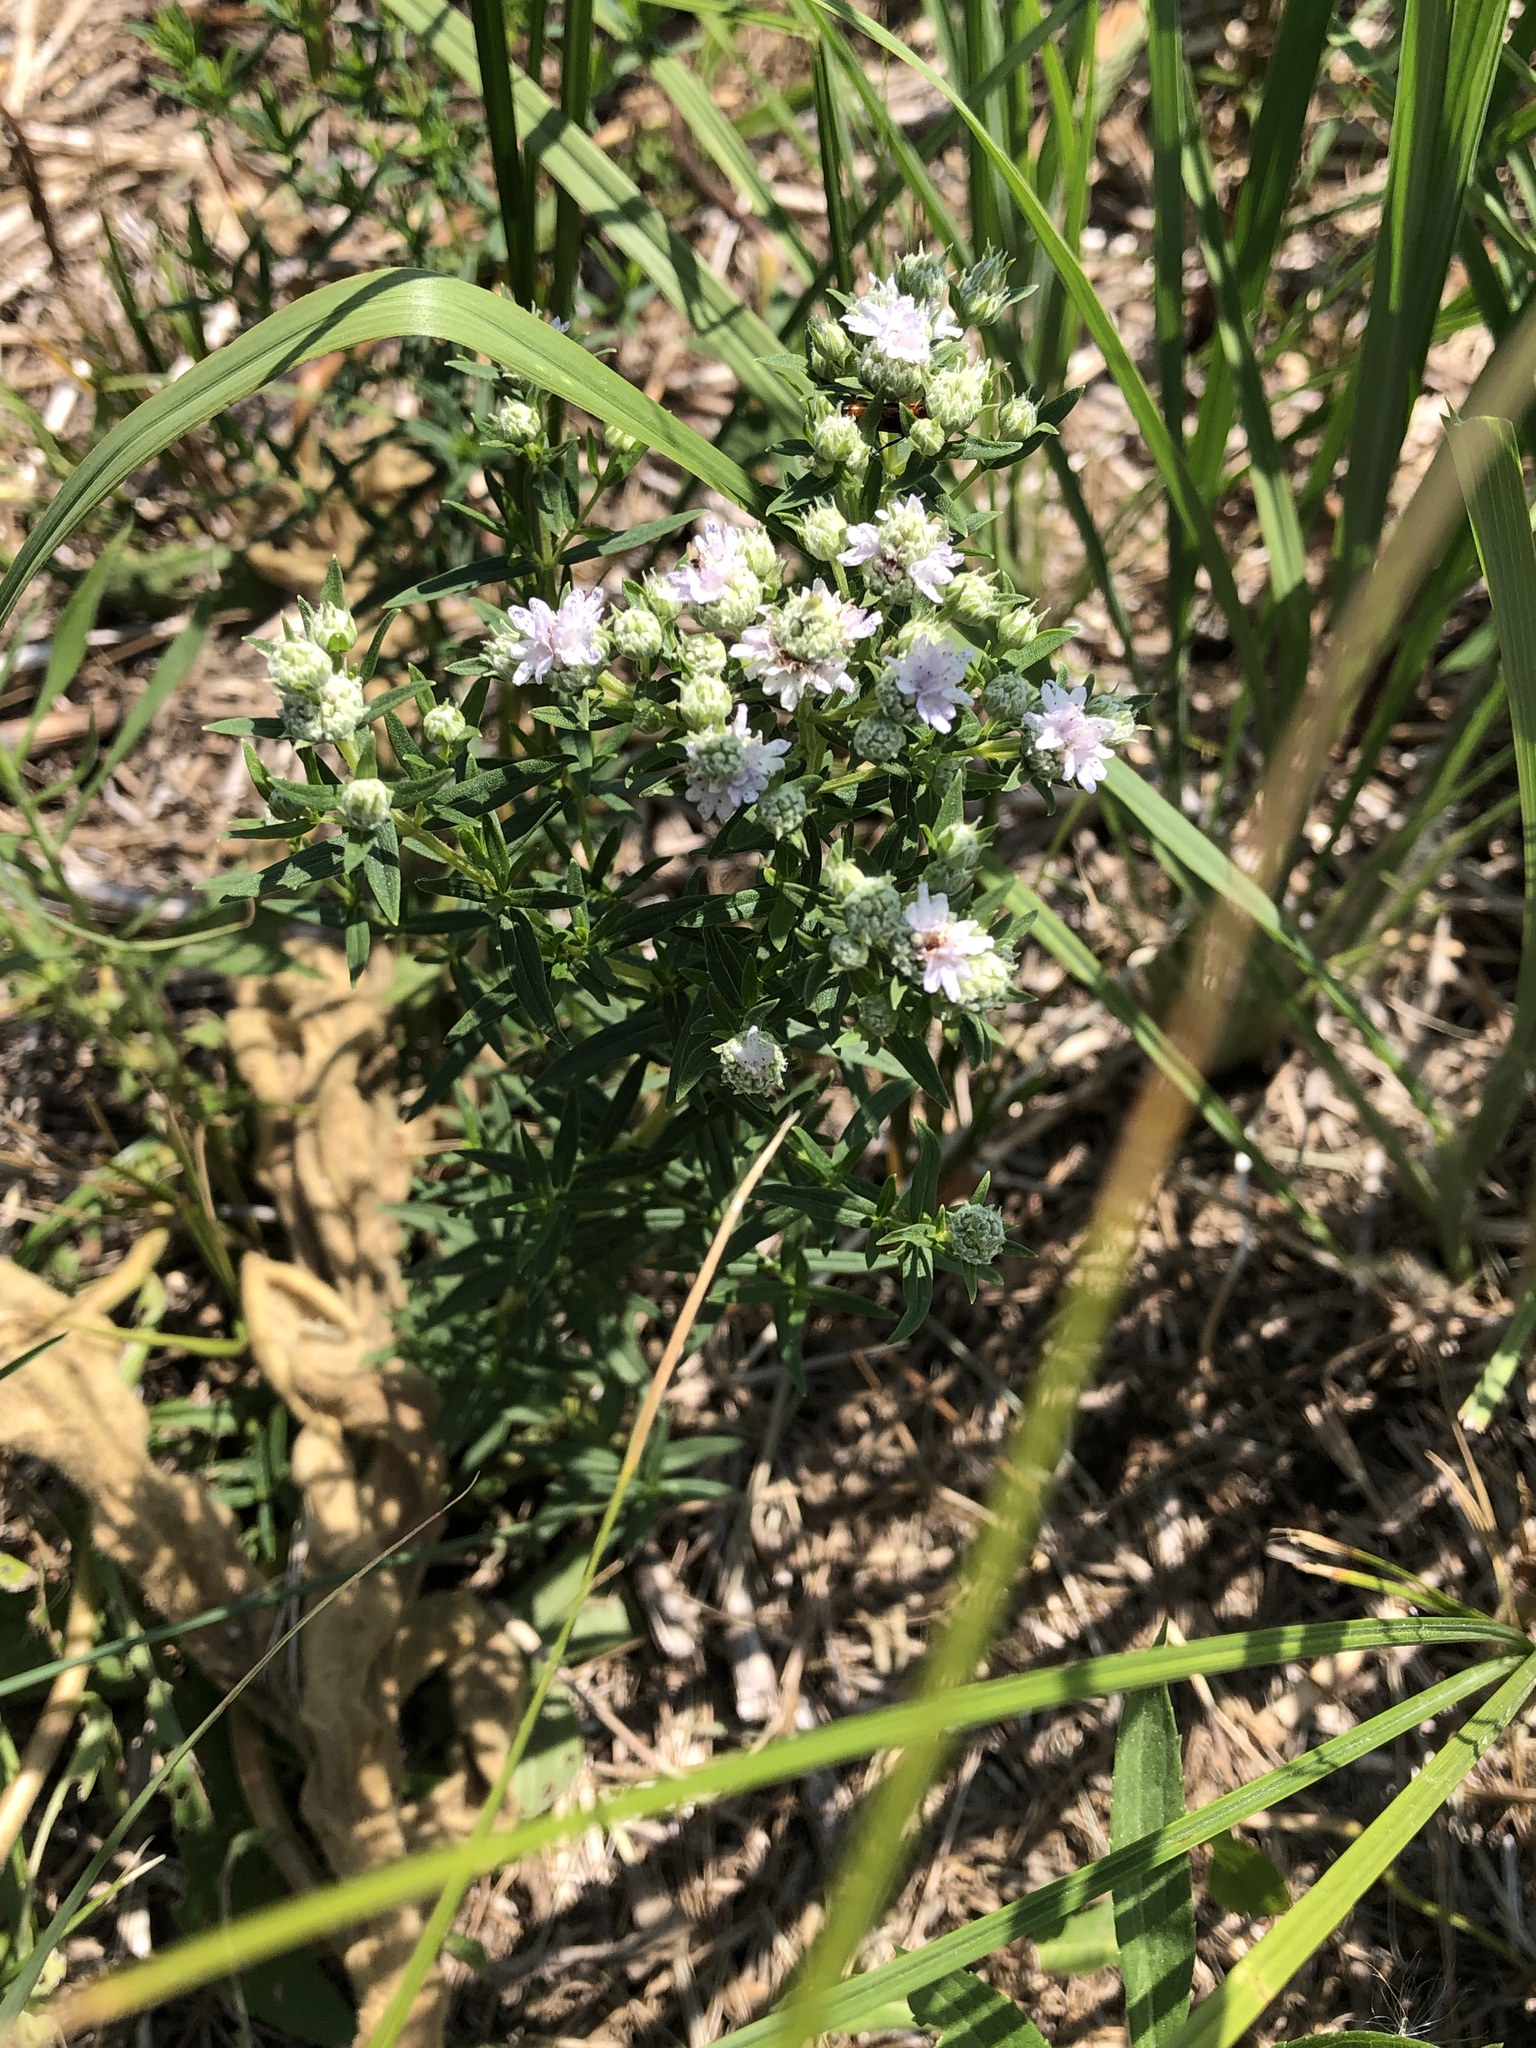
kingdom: Plantae
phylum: Tracheophyta
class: Magnoliopsida
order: Lamiales
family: Lamiaceae
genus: Pycnanthemum
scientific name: Pycnanthemum virginianum
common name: Virginia mountain-mint
